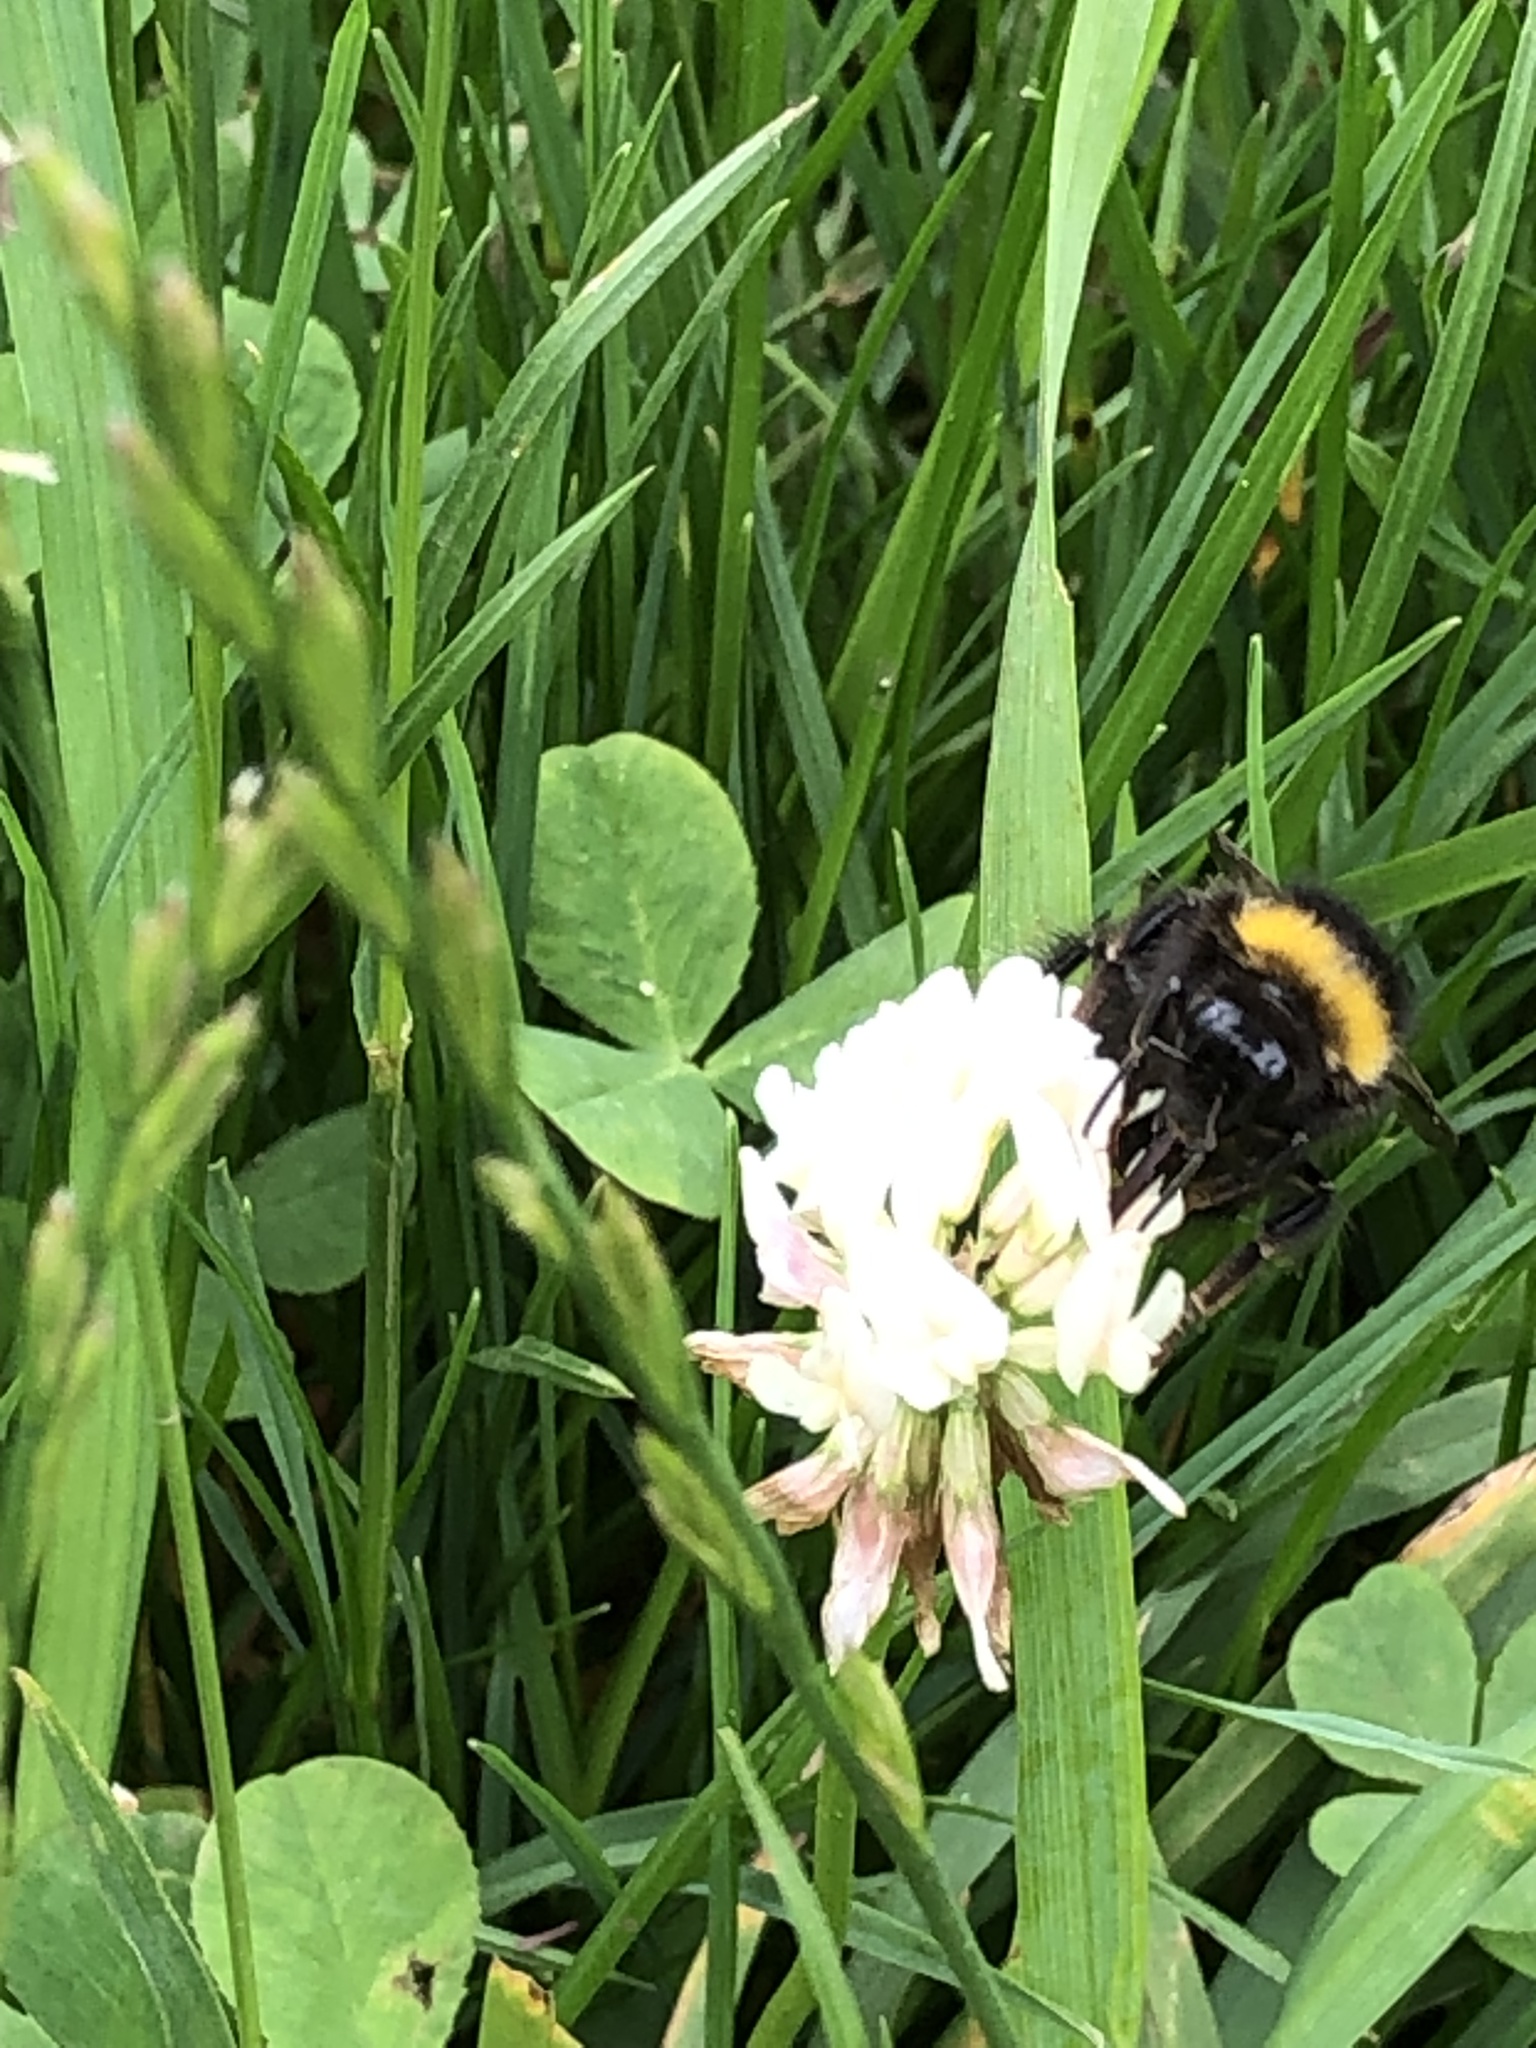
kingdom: Animalia
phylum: Arthropoda
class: Insecta
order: Hymenoptera
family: Apidae
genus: Bombus
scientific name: Bombus pratorum
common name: Early humble-bee
